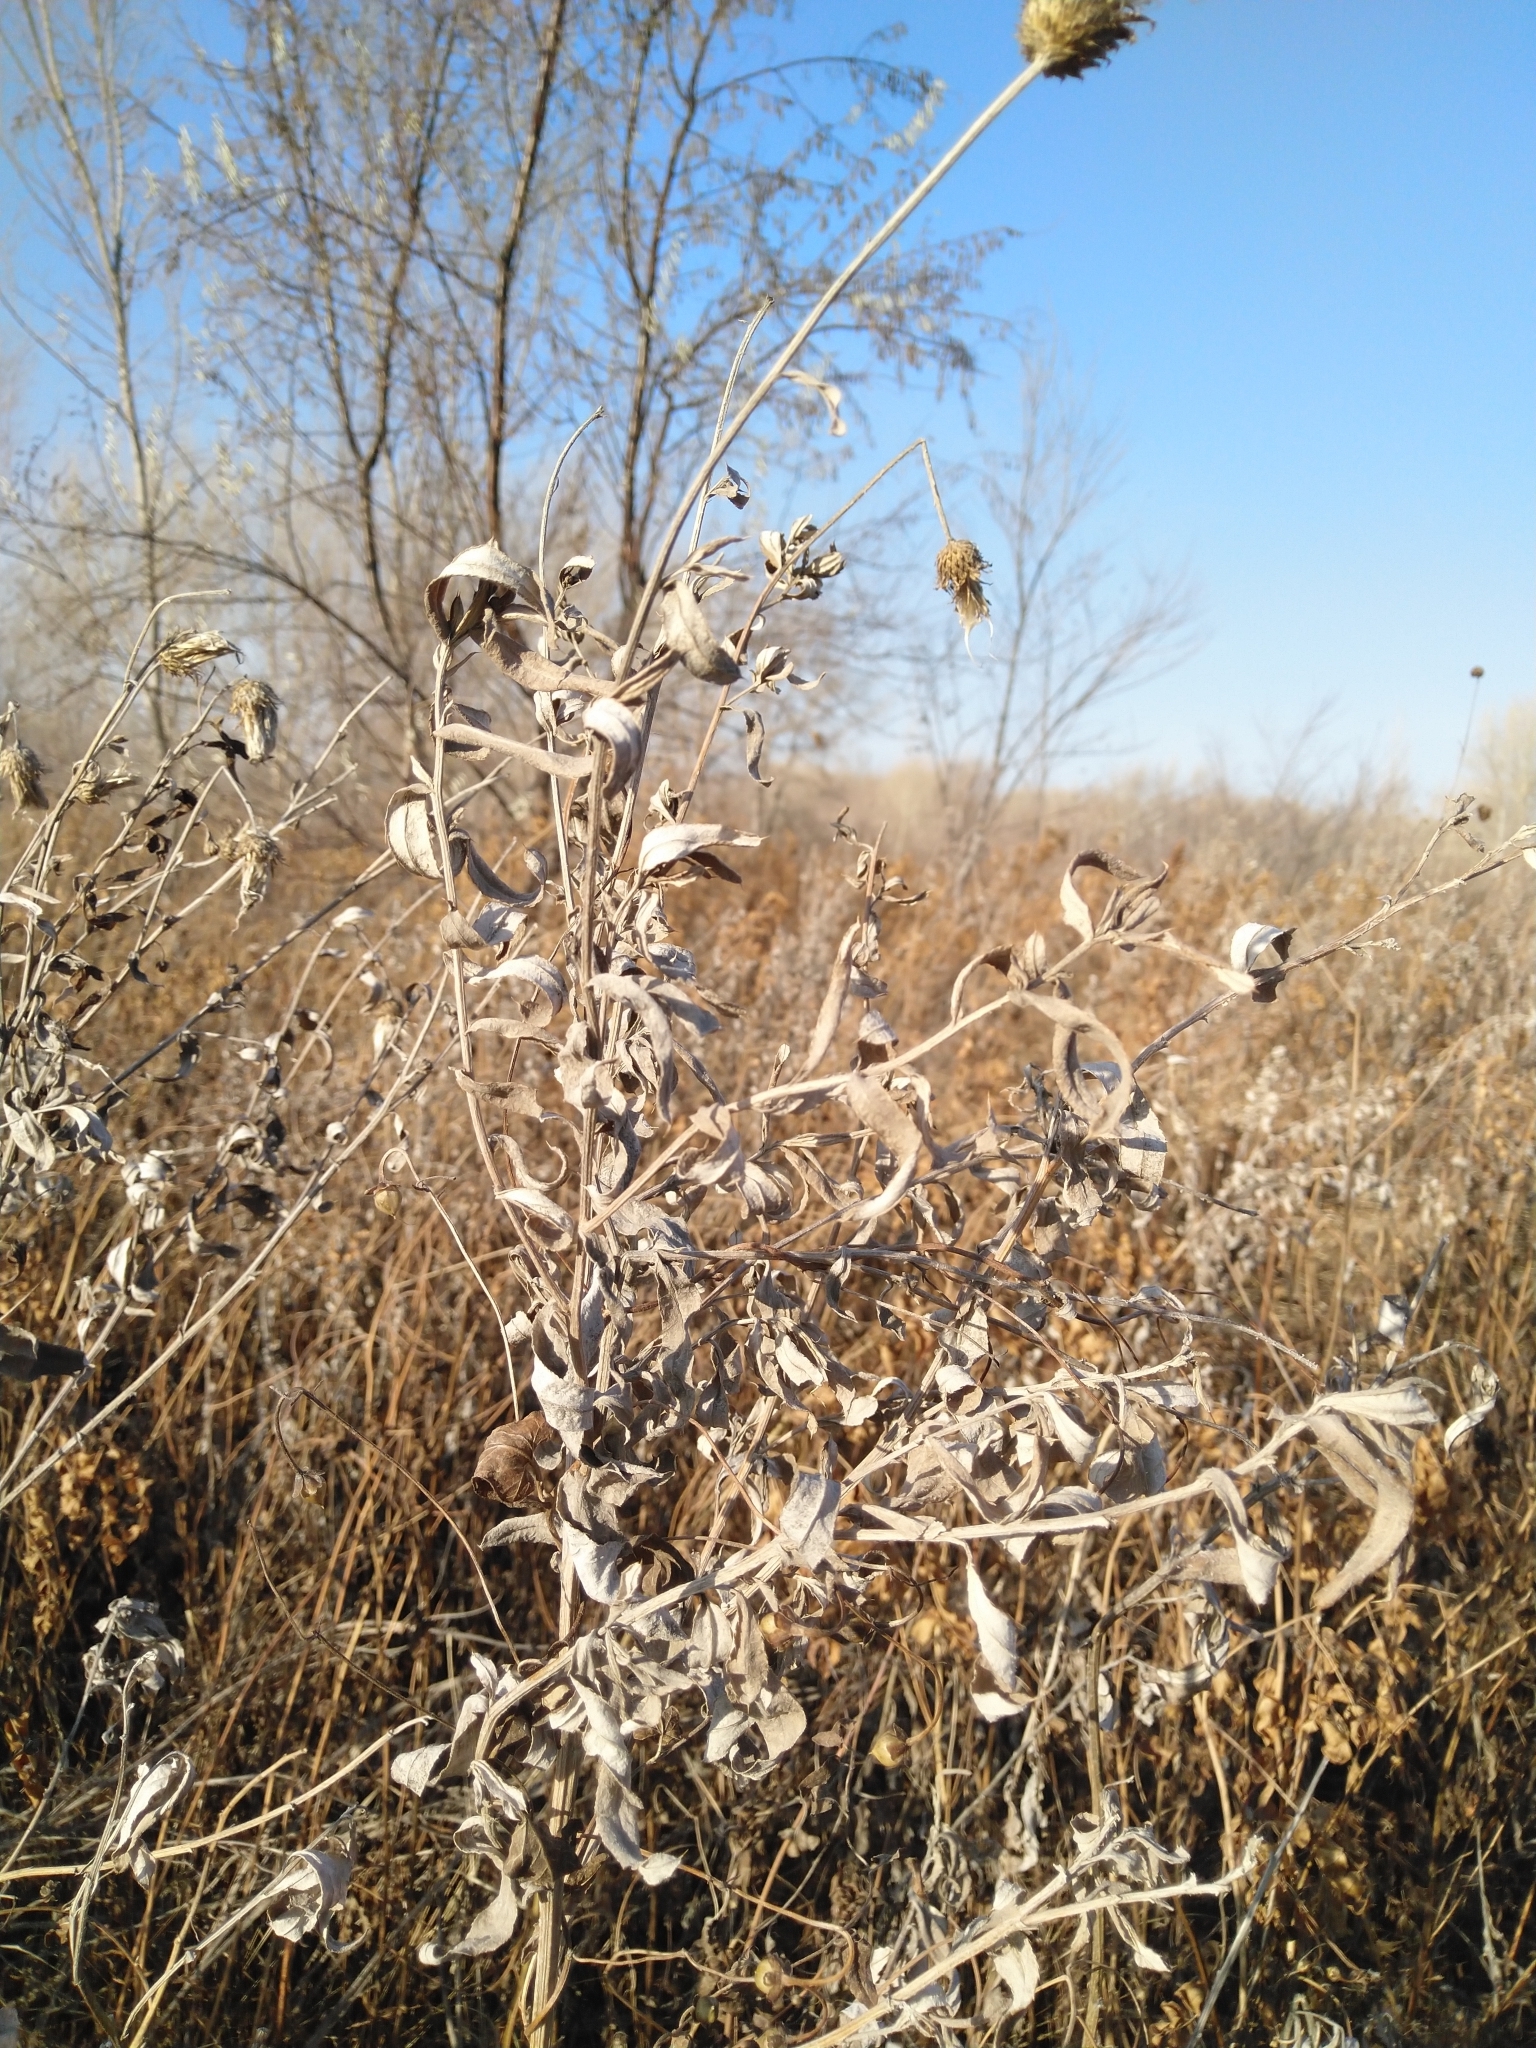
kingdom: Plantae
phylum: Tracheophyta
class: Magnoliopsida
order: Asterales
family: Asteraceae
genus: Cirsium
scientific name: Cirsium arvense
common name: Creeping thistle
